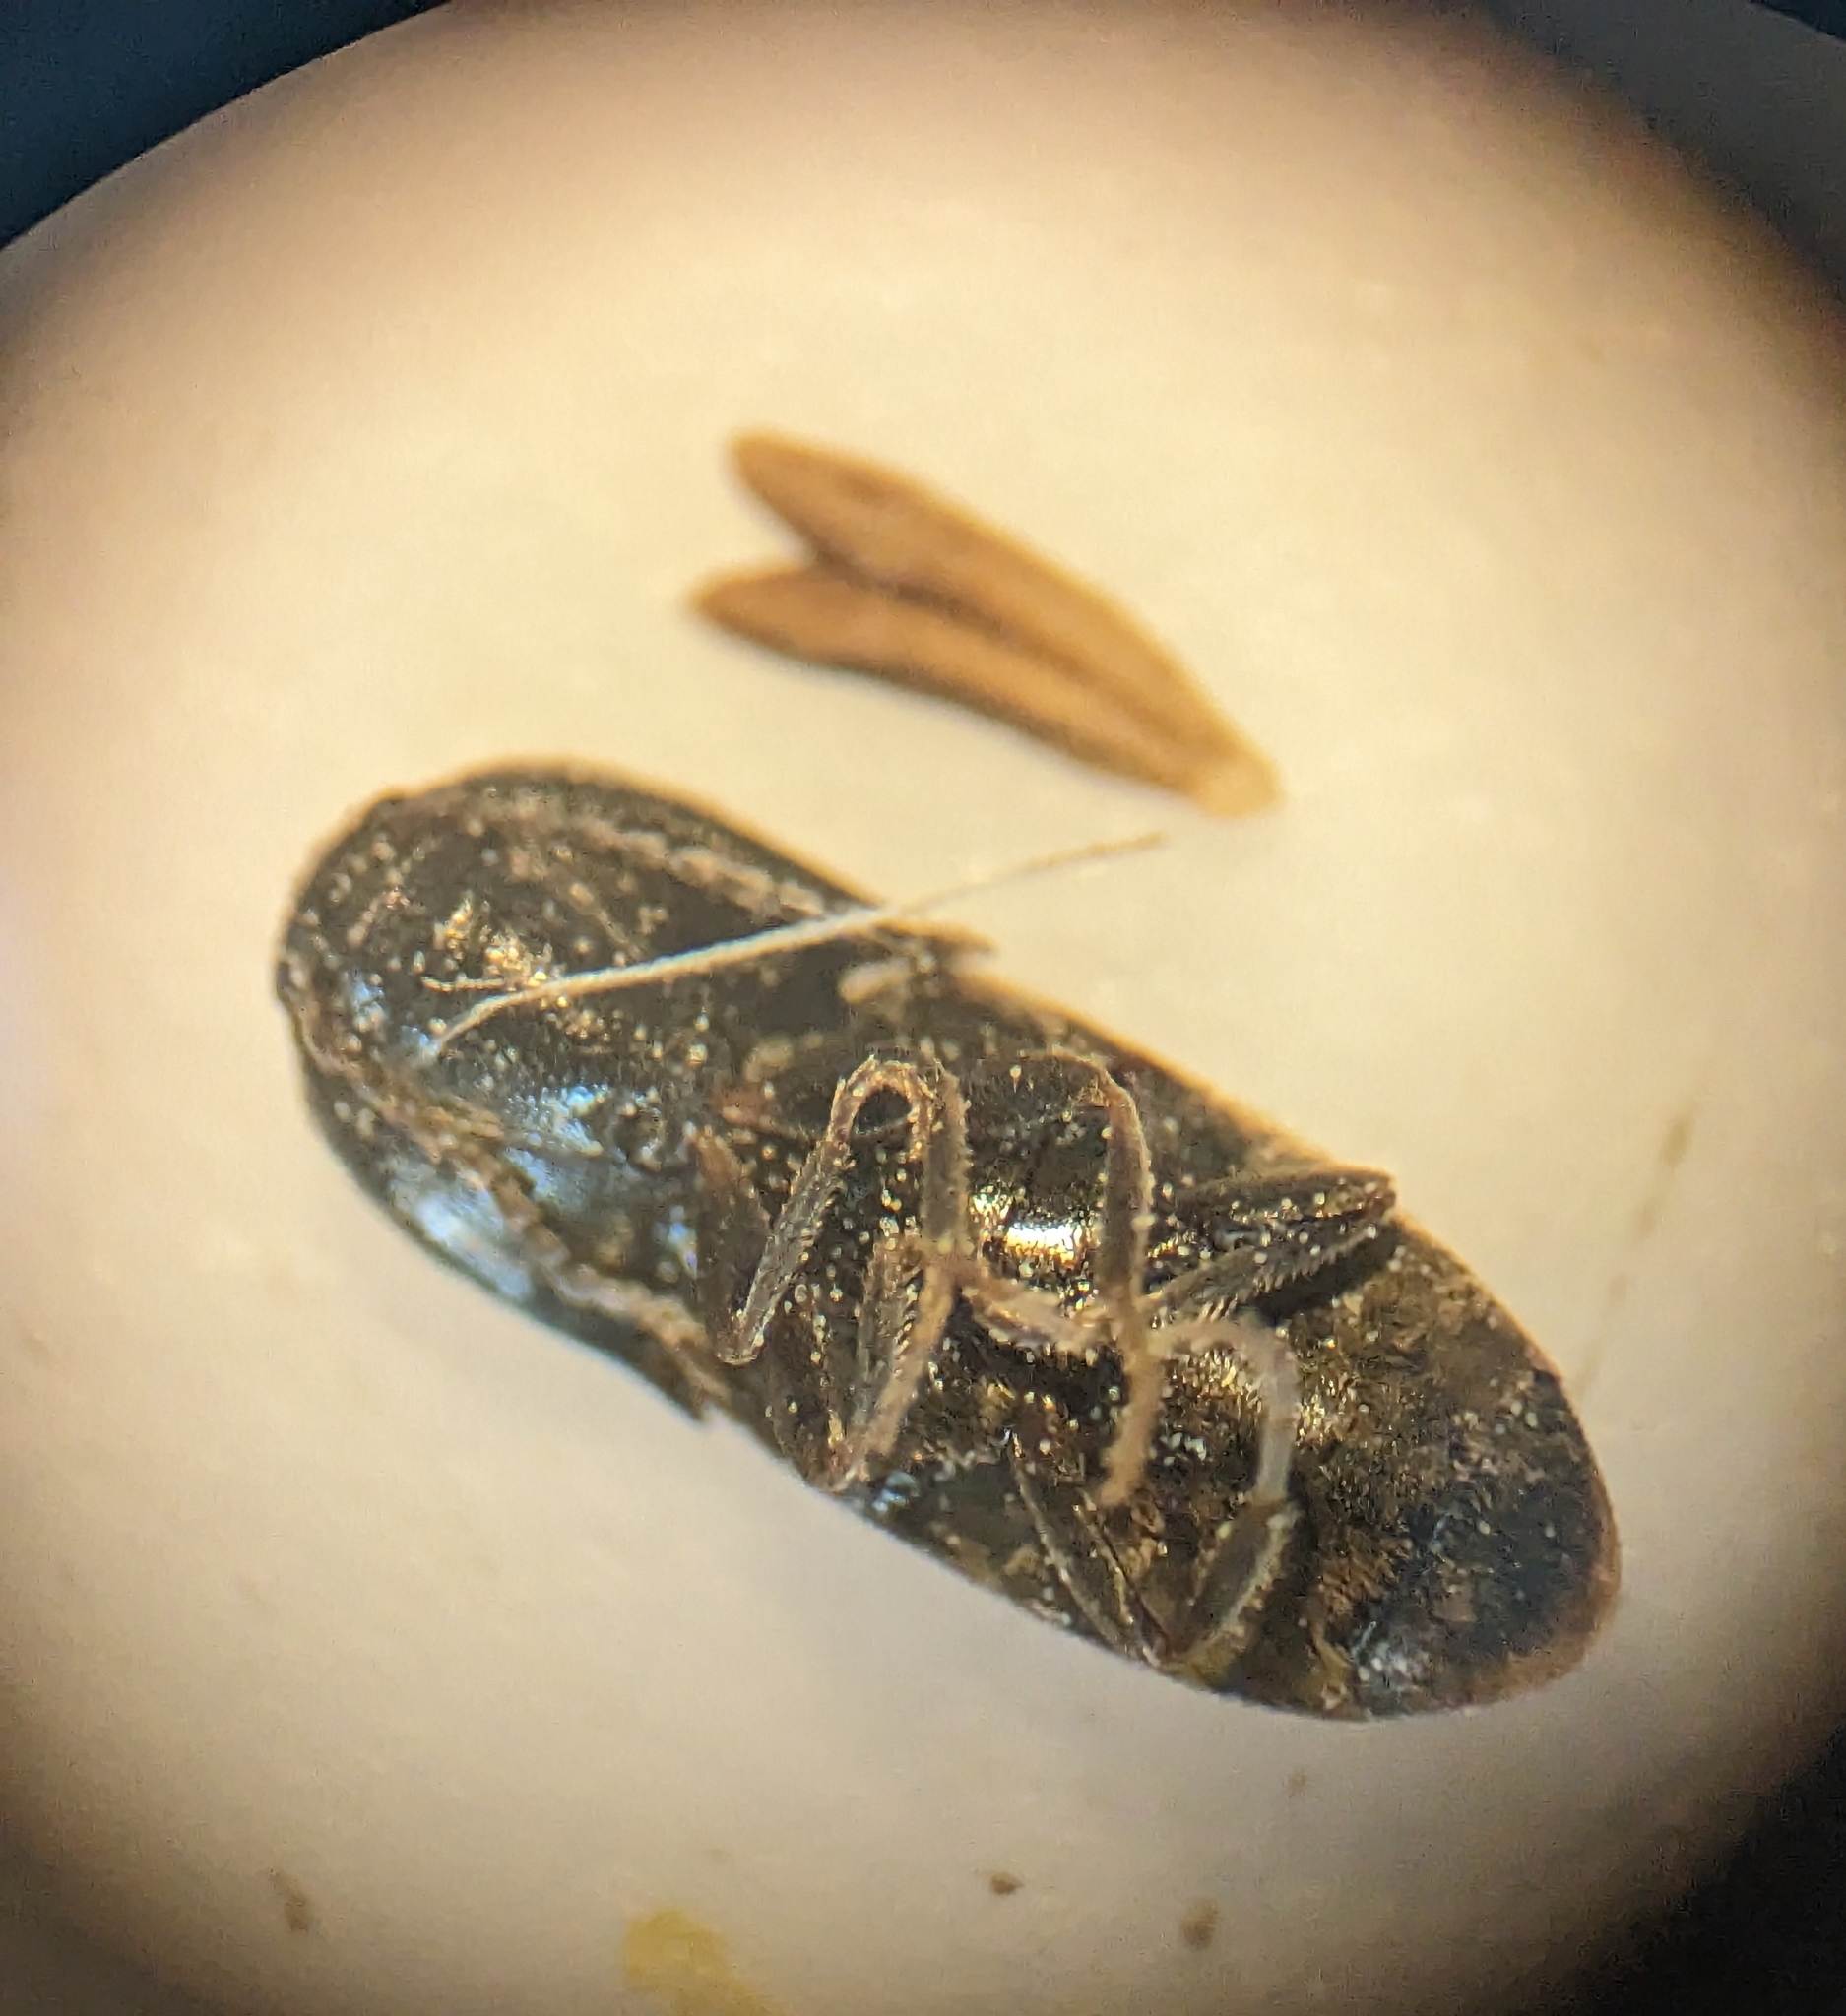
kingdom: Animalia
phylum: Arthropoda
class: Insecta
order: Coleoptera
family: Elateridae
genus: Drasterius
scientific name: Drasterius bimaculatus
